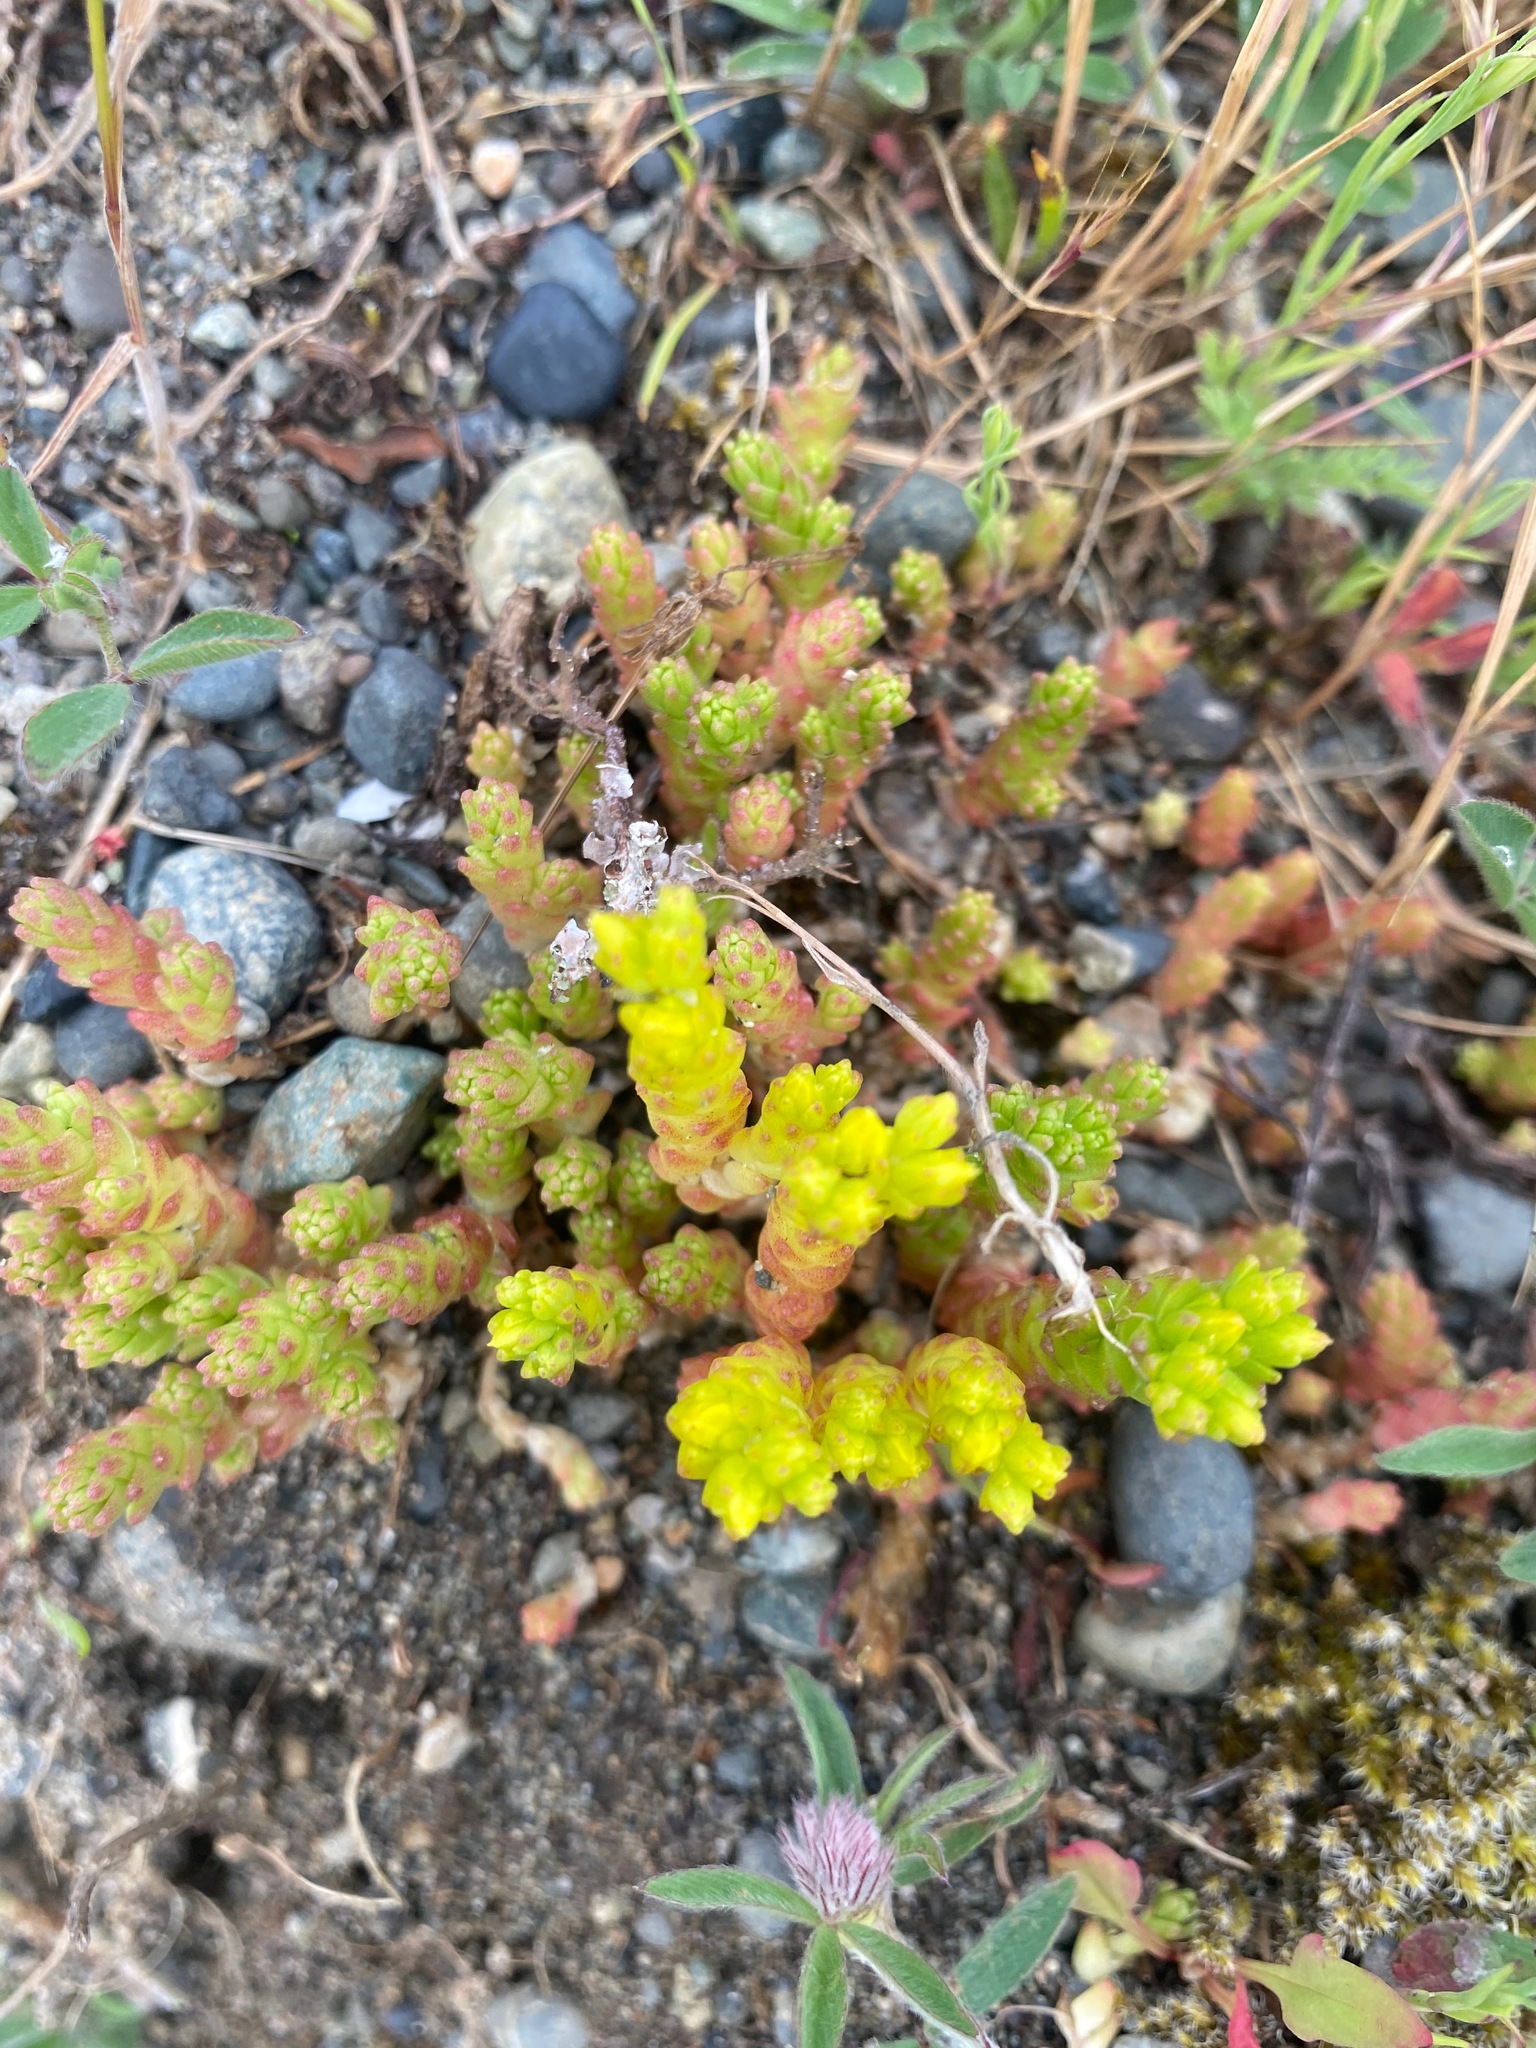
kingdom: Plantae
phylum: Tracheophyta
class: Magnoliopsida
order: Saxifragales
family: Crassulaceae
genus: Sedum
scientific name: Sedum acre
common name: Biting stonecrop
